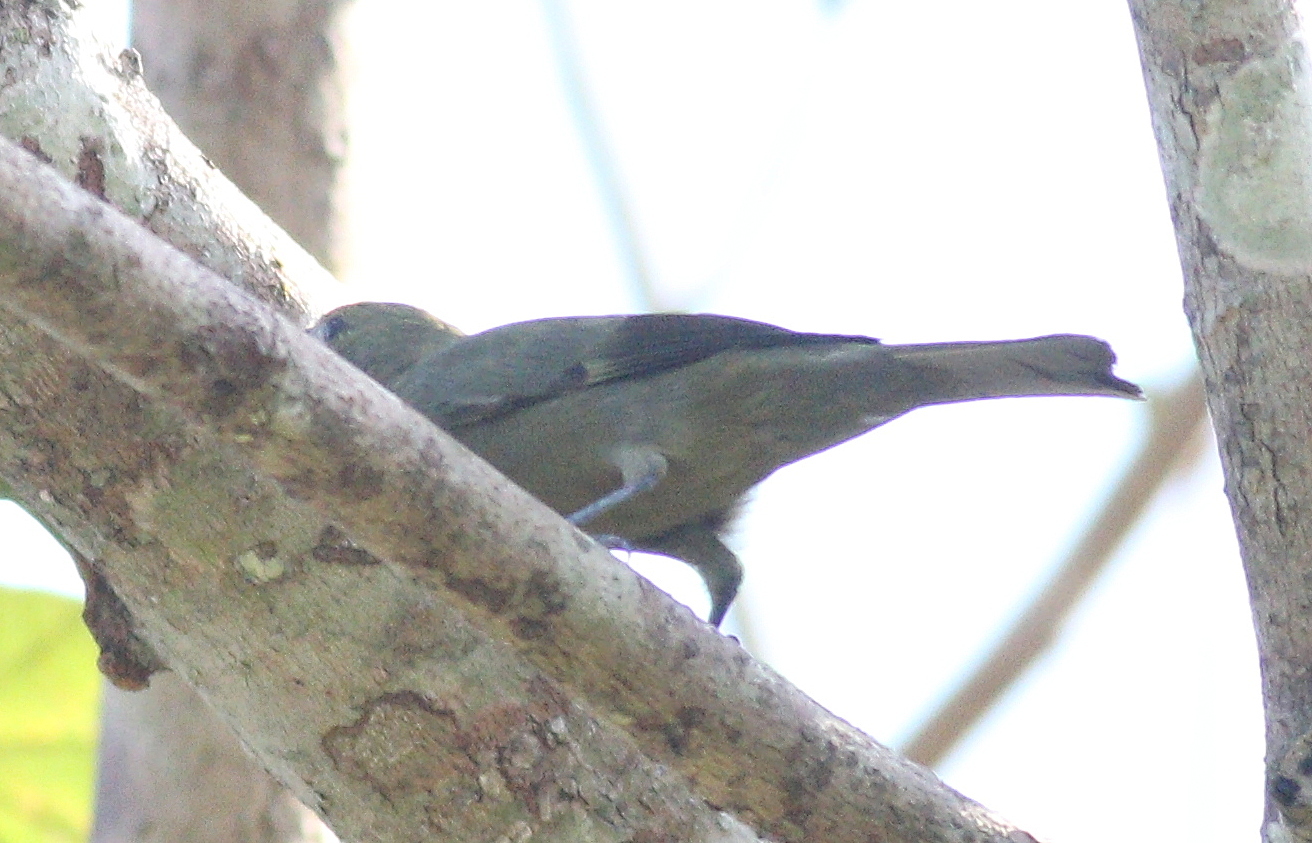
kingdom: Animalia
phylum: Chordata
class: Aves
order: Passeriformes
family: Thraupidae
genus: Thraupis
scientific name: Thraupis palmarum
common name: Palm tanager
